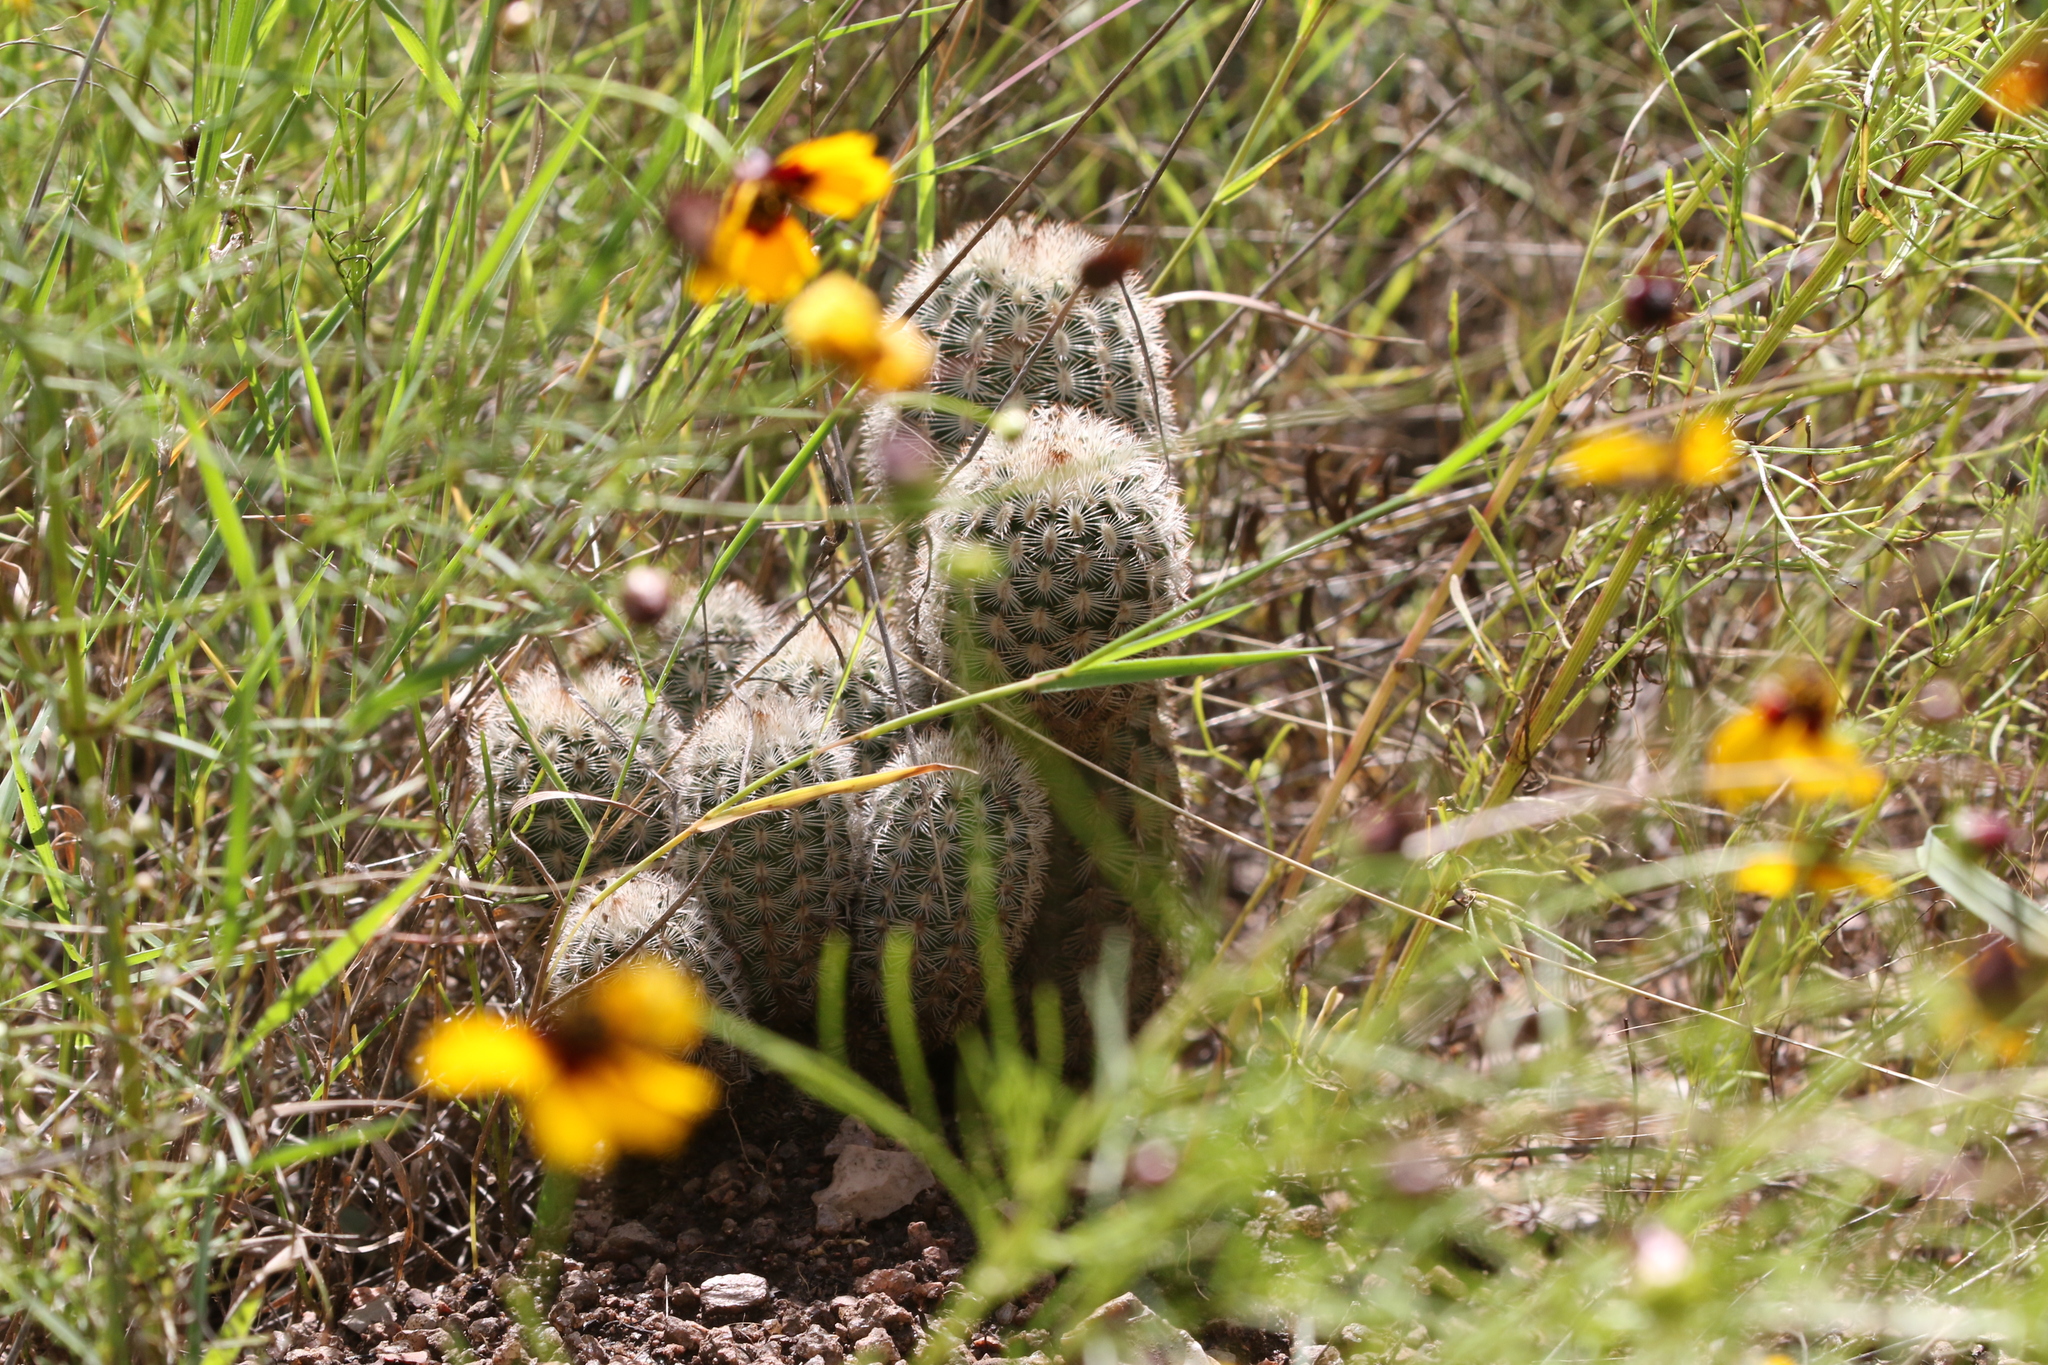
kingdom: Plantae
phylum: Tracheophyta
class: Magnoliopsida
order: Caryophyllales
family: Cactaceae
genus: Echinocereus
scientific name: Echinocereus reichenbachii
